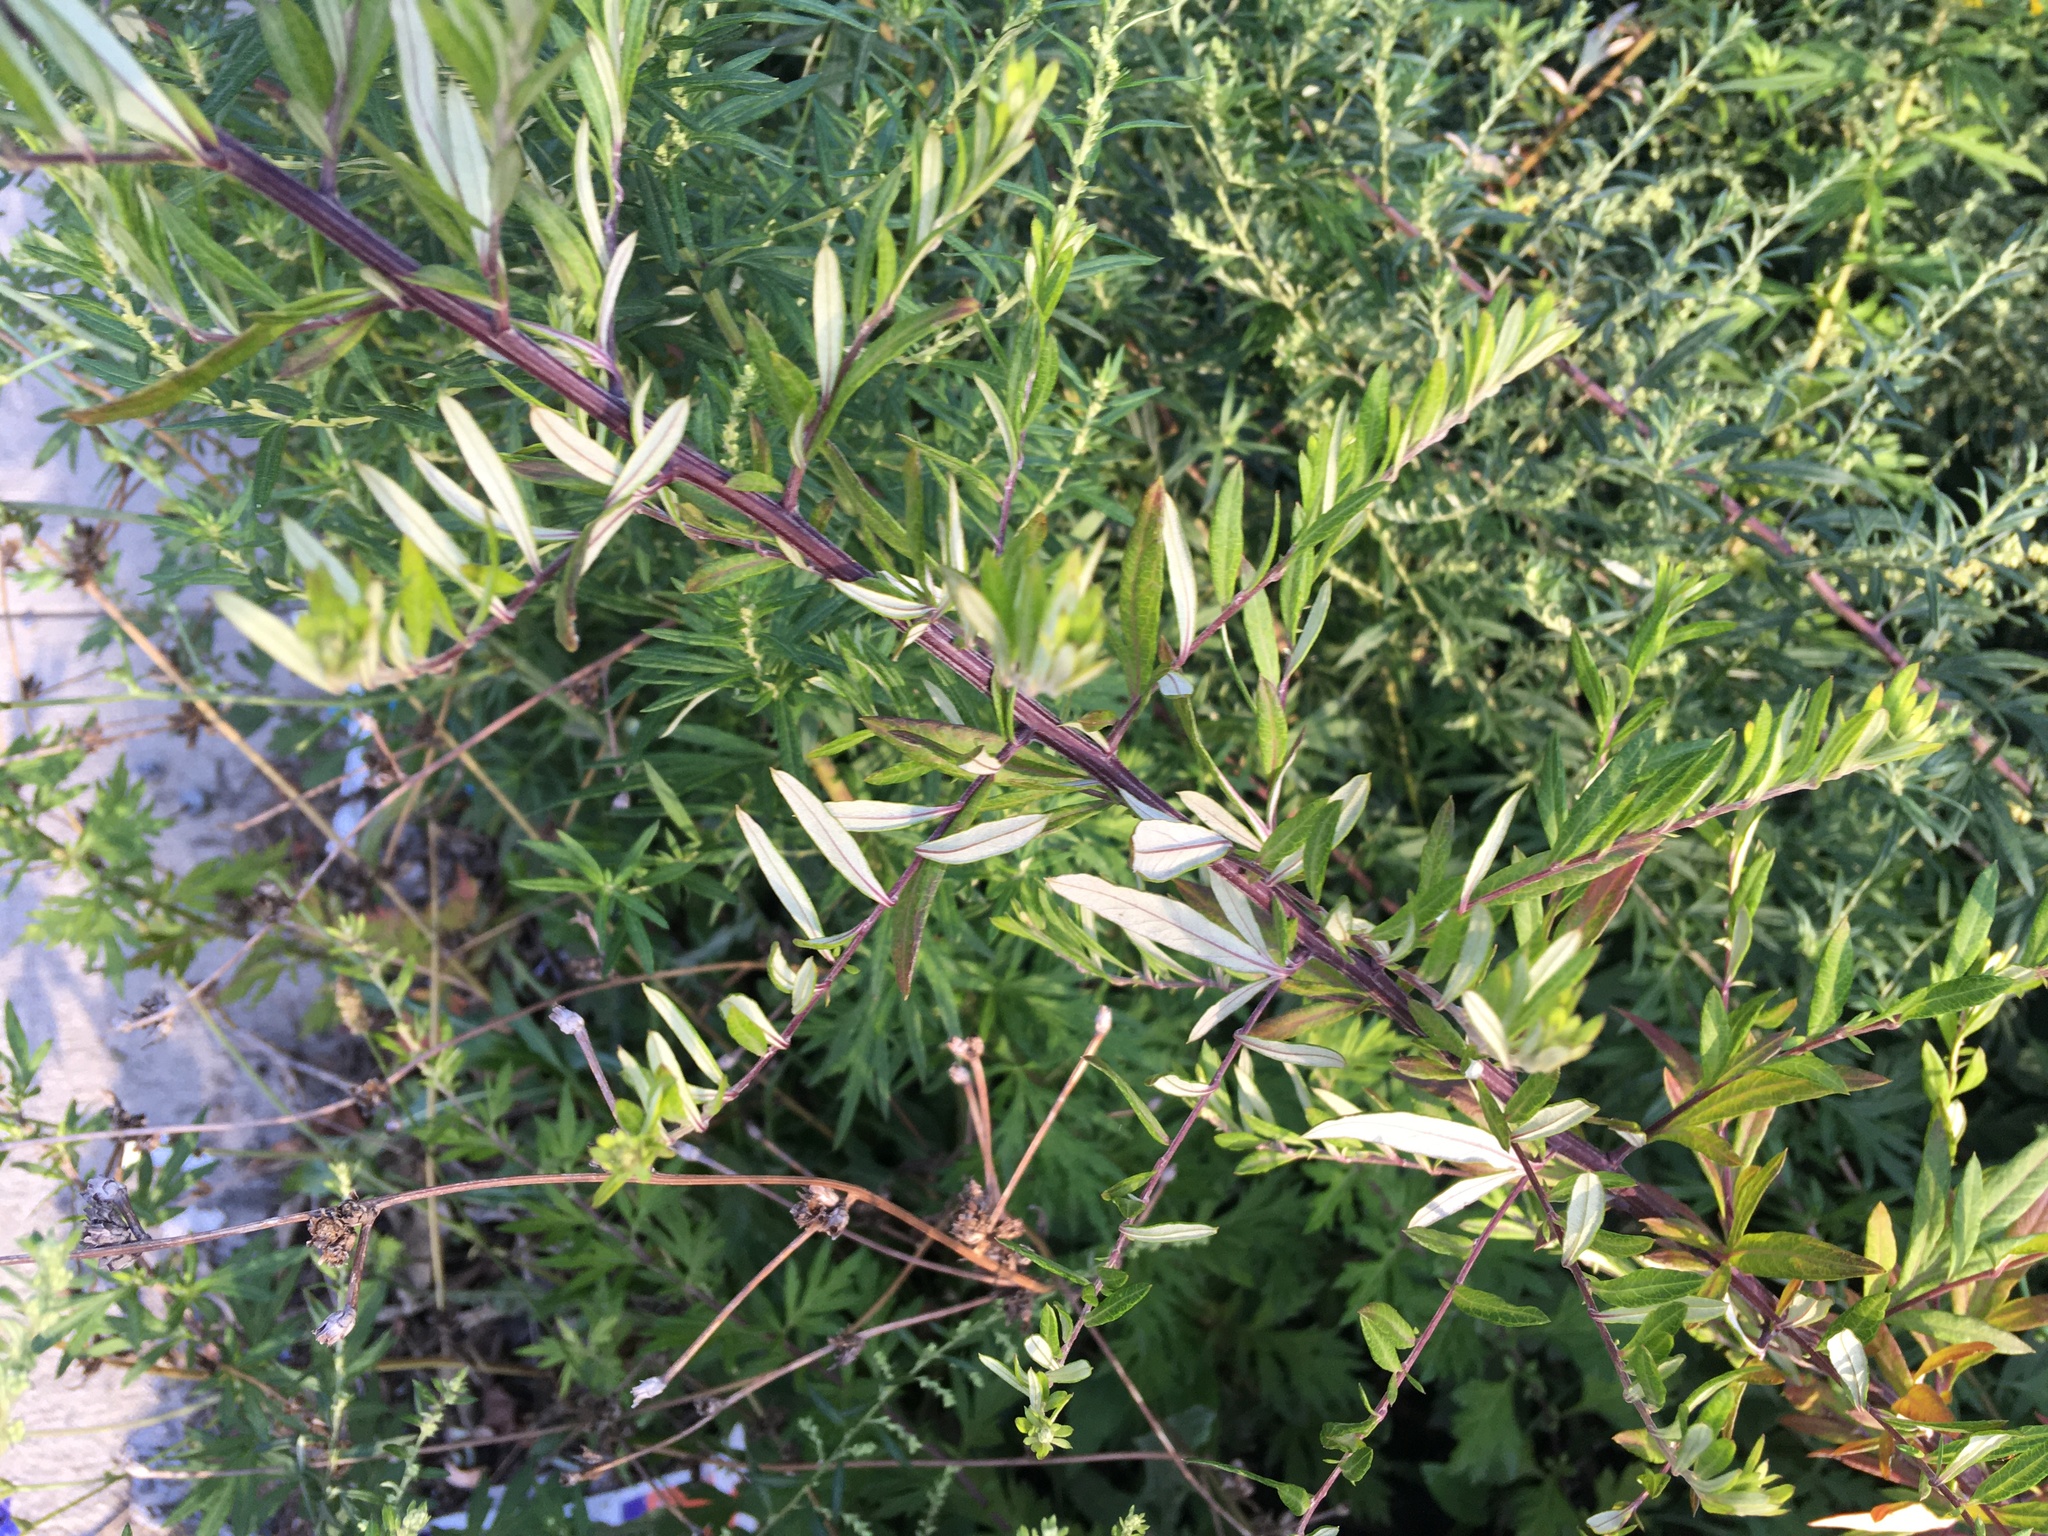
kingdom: Plantae
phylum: Tracheophyta
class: Magnoliopsida
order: Asterales
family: Asteraceae
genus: Artemisia
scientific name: Artemisia vulgaris
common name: Mugwort
